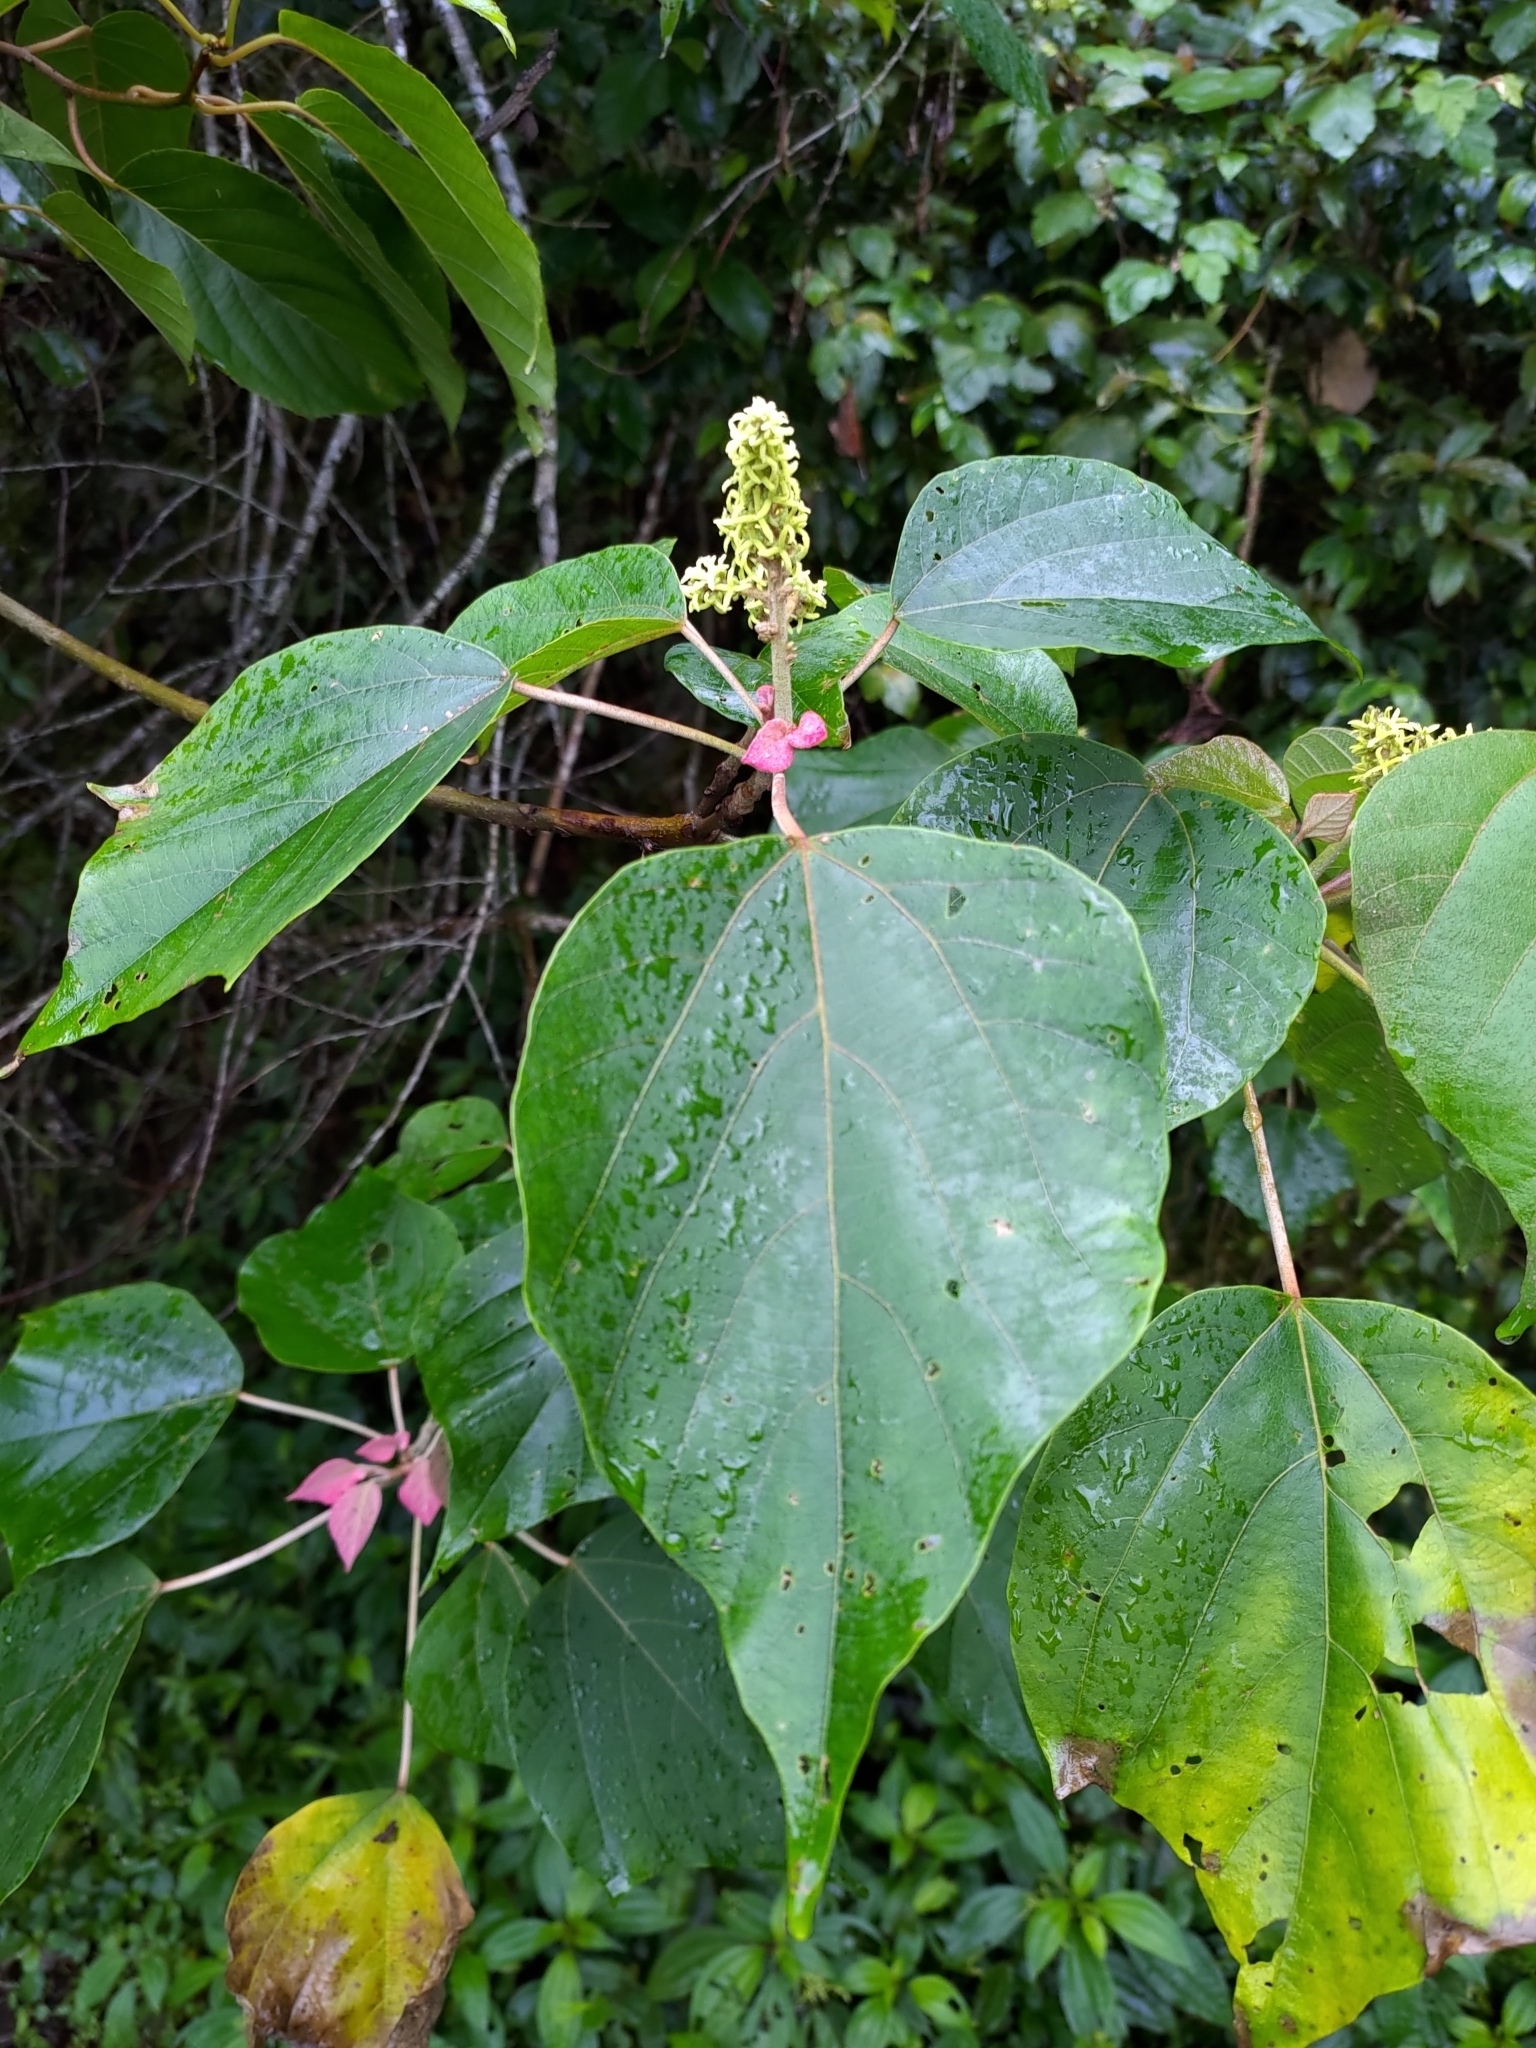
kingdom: Plantae
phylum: Tracheophyta
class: Magnoliopsida
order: Malpighiales
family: Euphorbiaceae
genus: Mallotus
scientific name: Mallotus japonicus
